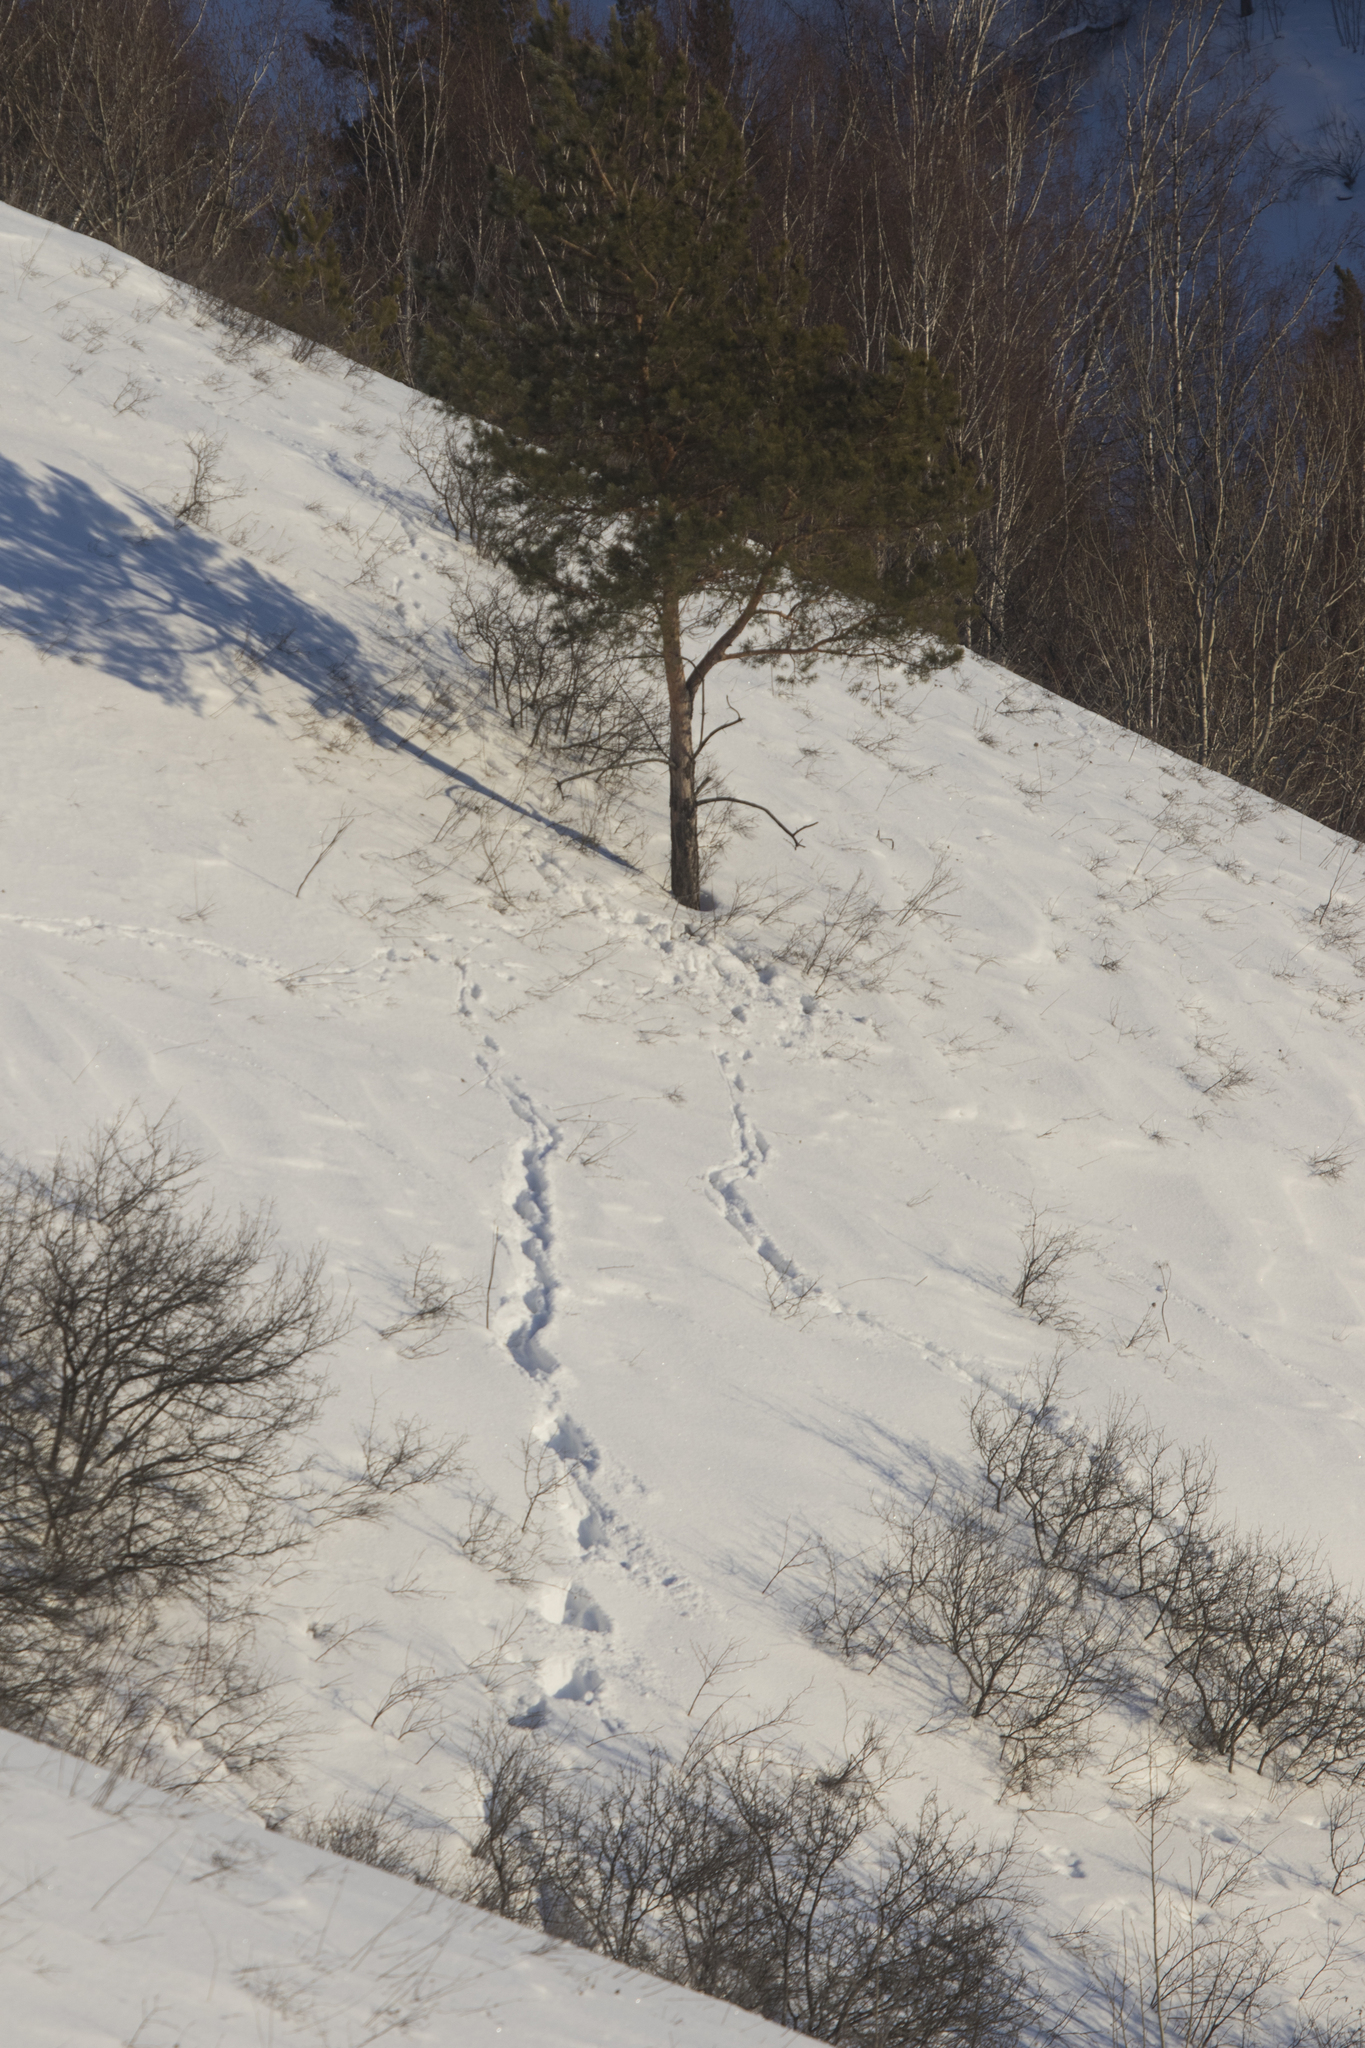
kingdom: Animalia
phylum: Chordata
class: Mammalia
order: Artiodactyla
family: Cervidae
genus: Capreolus
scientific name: Capreolus pygargus
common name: Siberian roe
